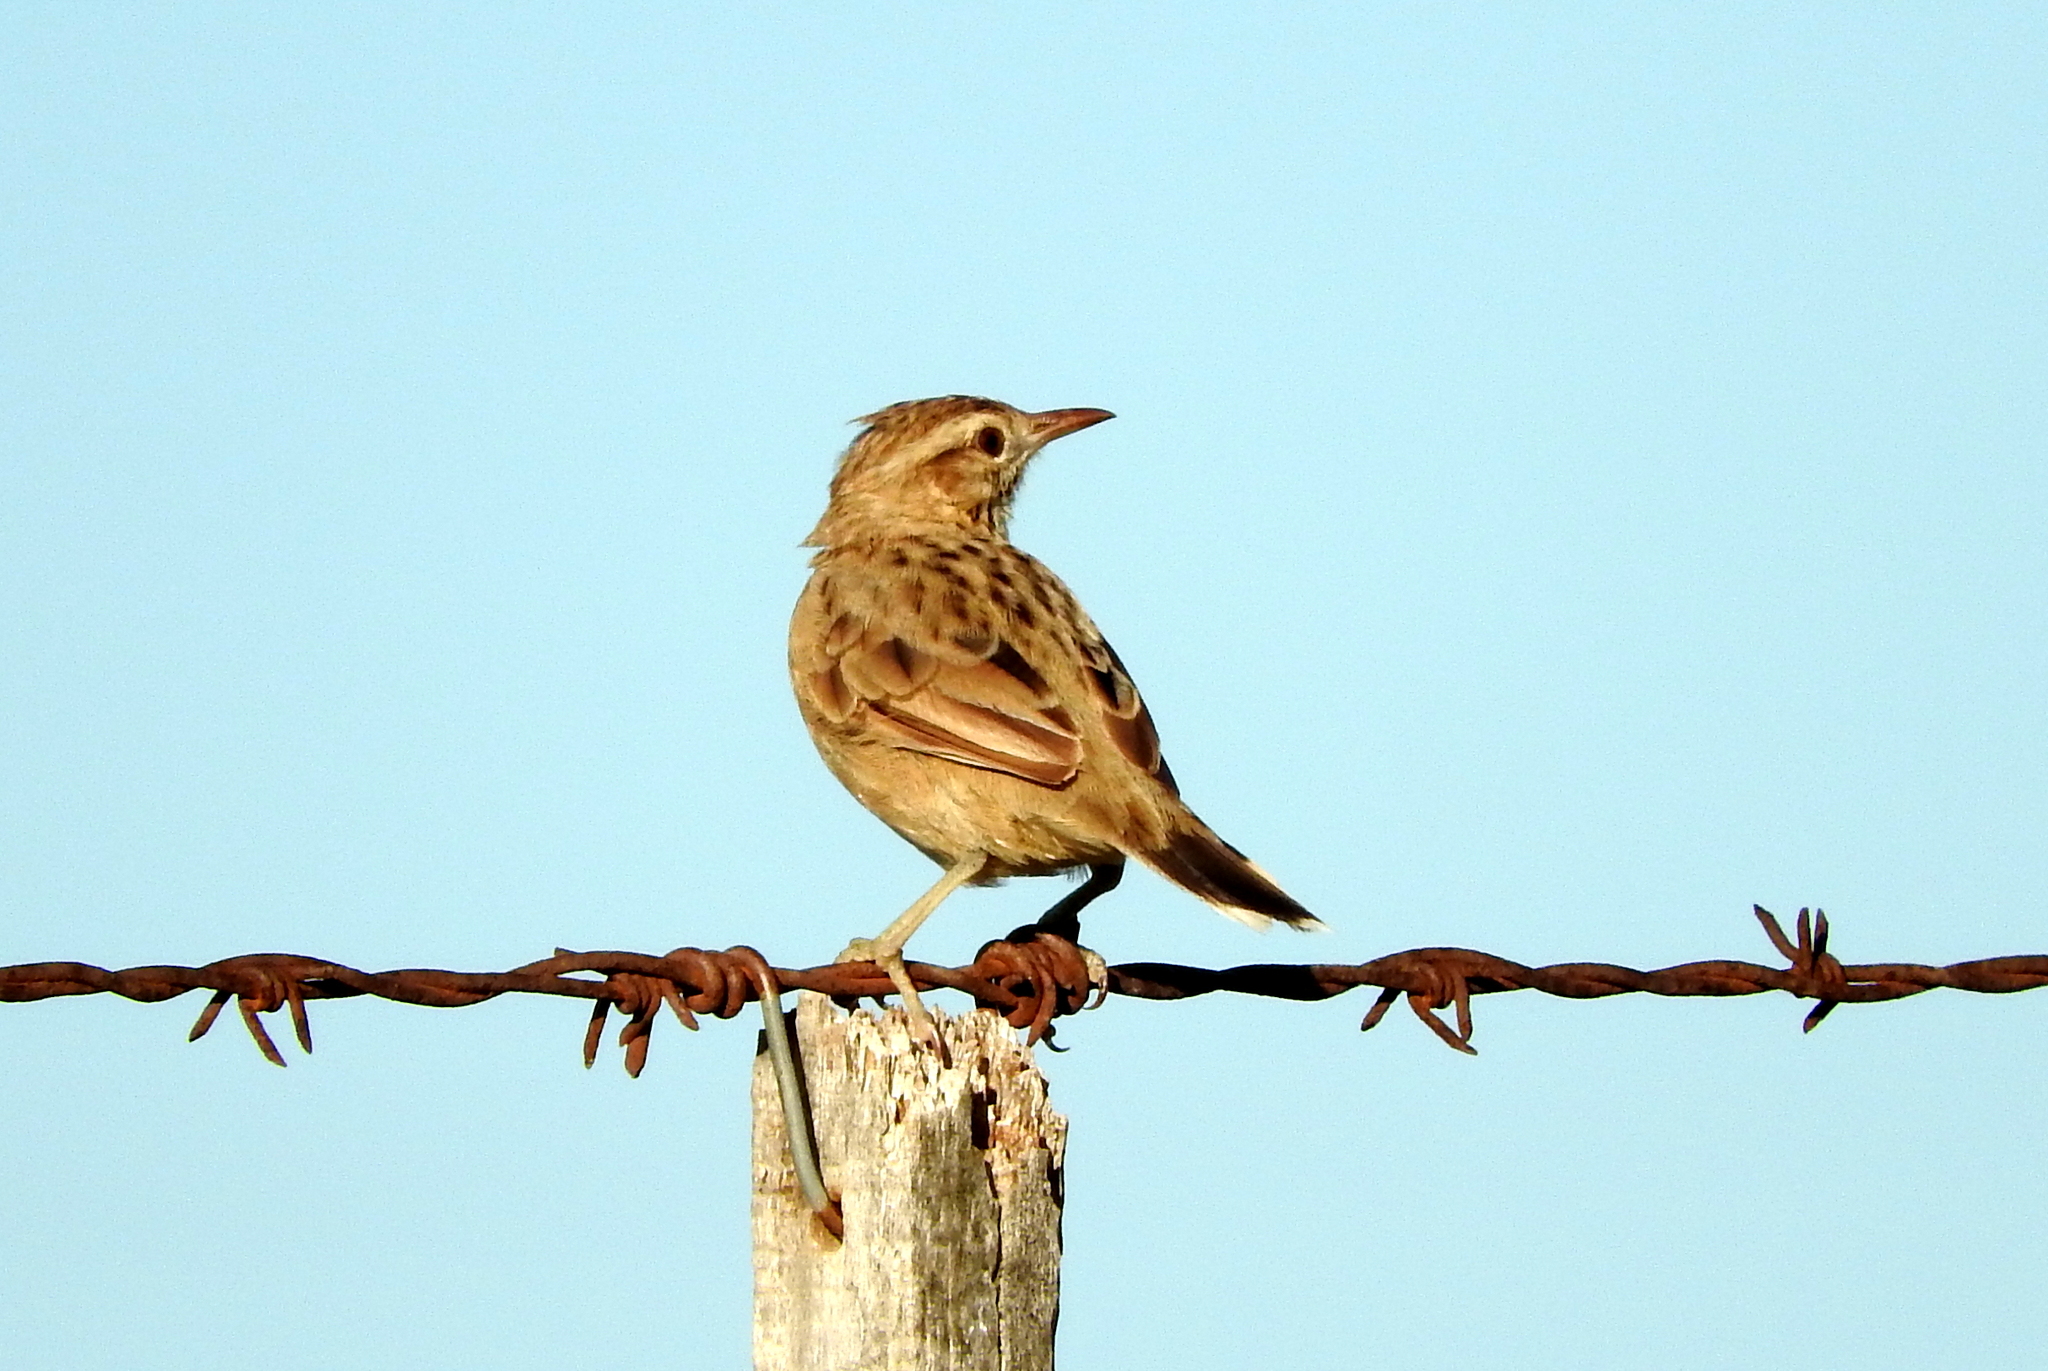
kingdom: Animalia
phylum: Chordata
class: Aves
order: Passeriformes
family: Furnariidae
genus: Anumbius
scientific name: Anumbius annumbi
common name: Firewood-gatherer
